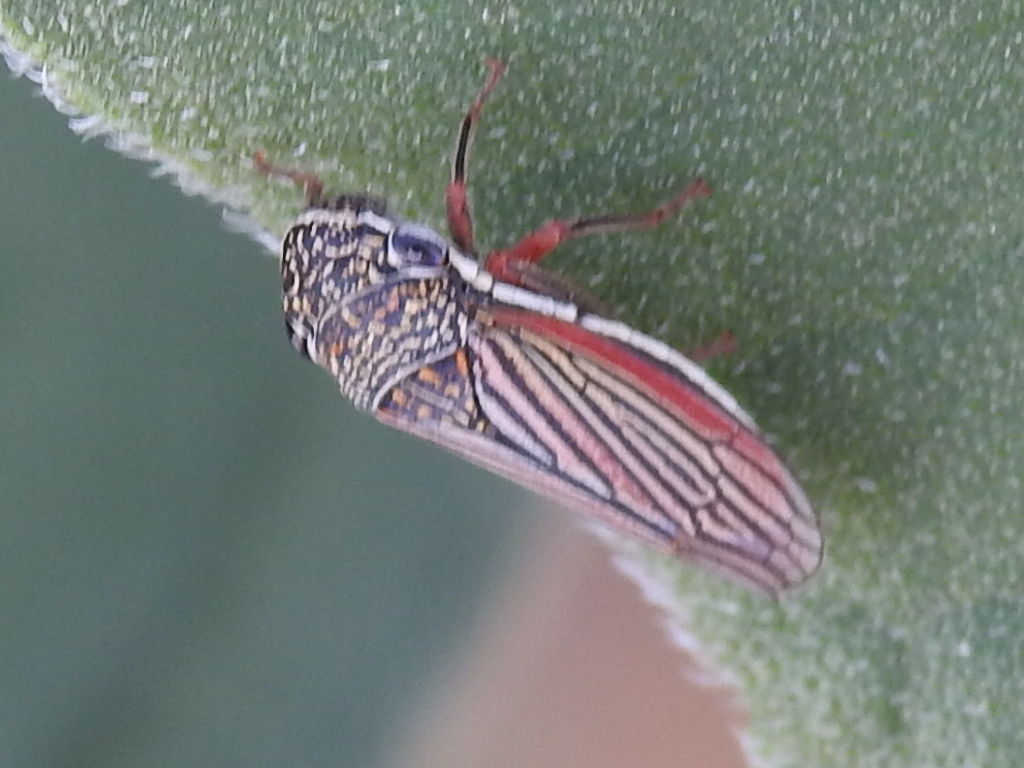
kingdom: Animalia
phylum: Arthropoda
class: Insecta
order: Hemiptera
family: Cicadellidae
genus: Cuerna
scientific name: Cuerna costalis
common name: Lateral-lined sharpshooter
